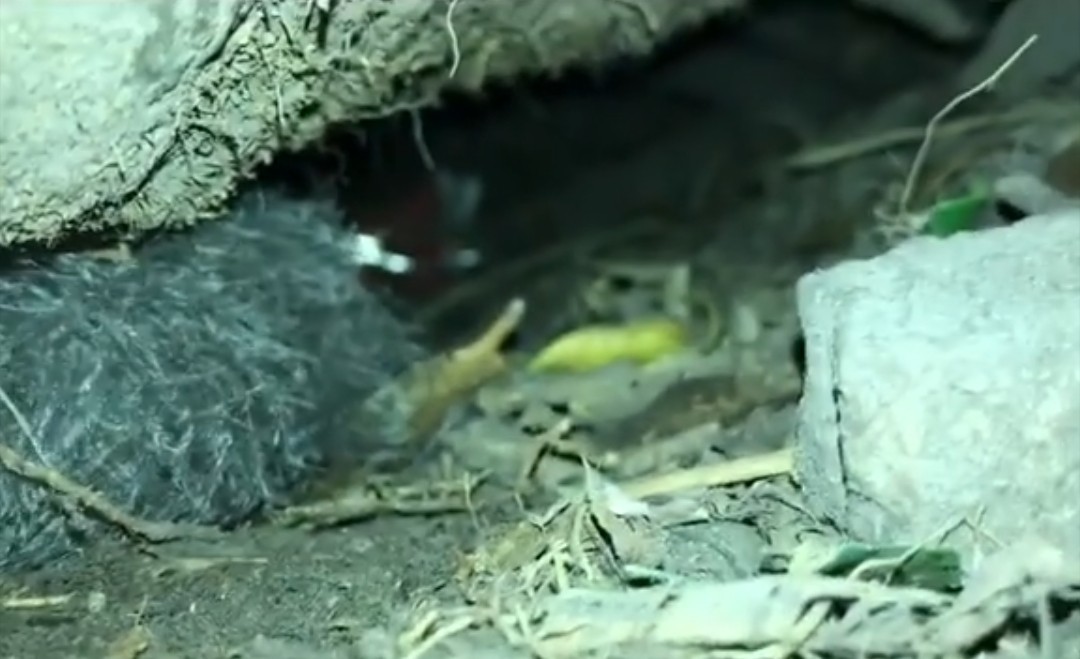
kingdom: Animalia
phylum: Chordata
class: Aves
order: Procellariiformes
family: Procellariidae
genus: Puffinus
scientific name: Puffinus bulleri
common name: Buller's shearwater
